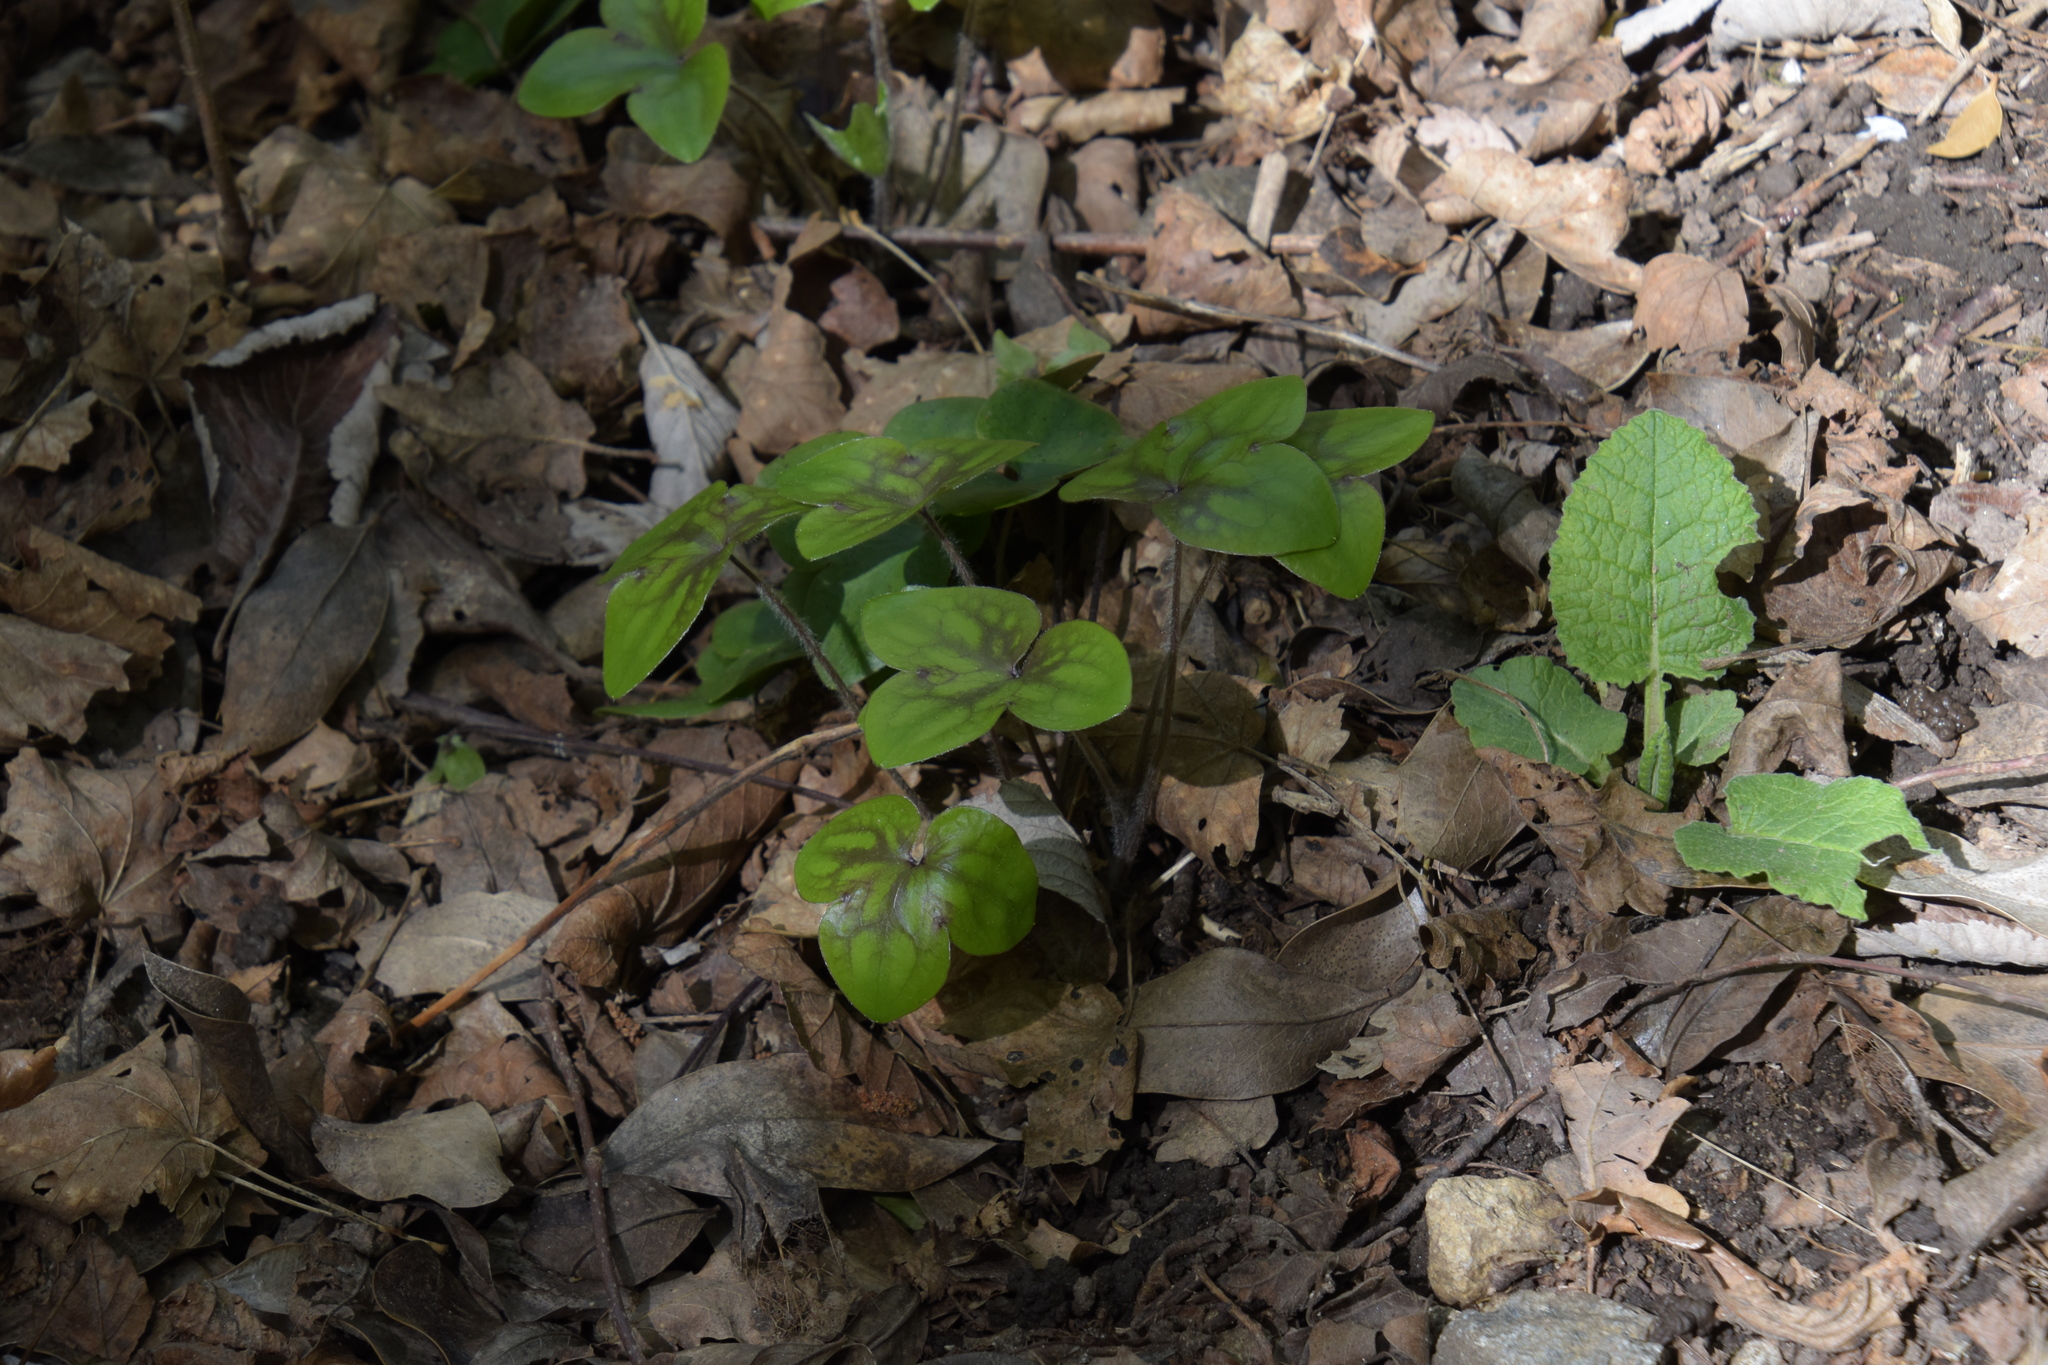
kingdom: Plantae
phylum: Tracheophyta
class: Magnoliopsida
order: Ranunculales
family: Ranunculaceae
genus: Hepatica
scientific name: Hepatica nobilis
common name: Liverleaf
